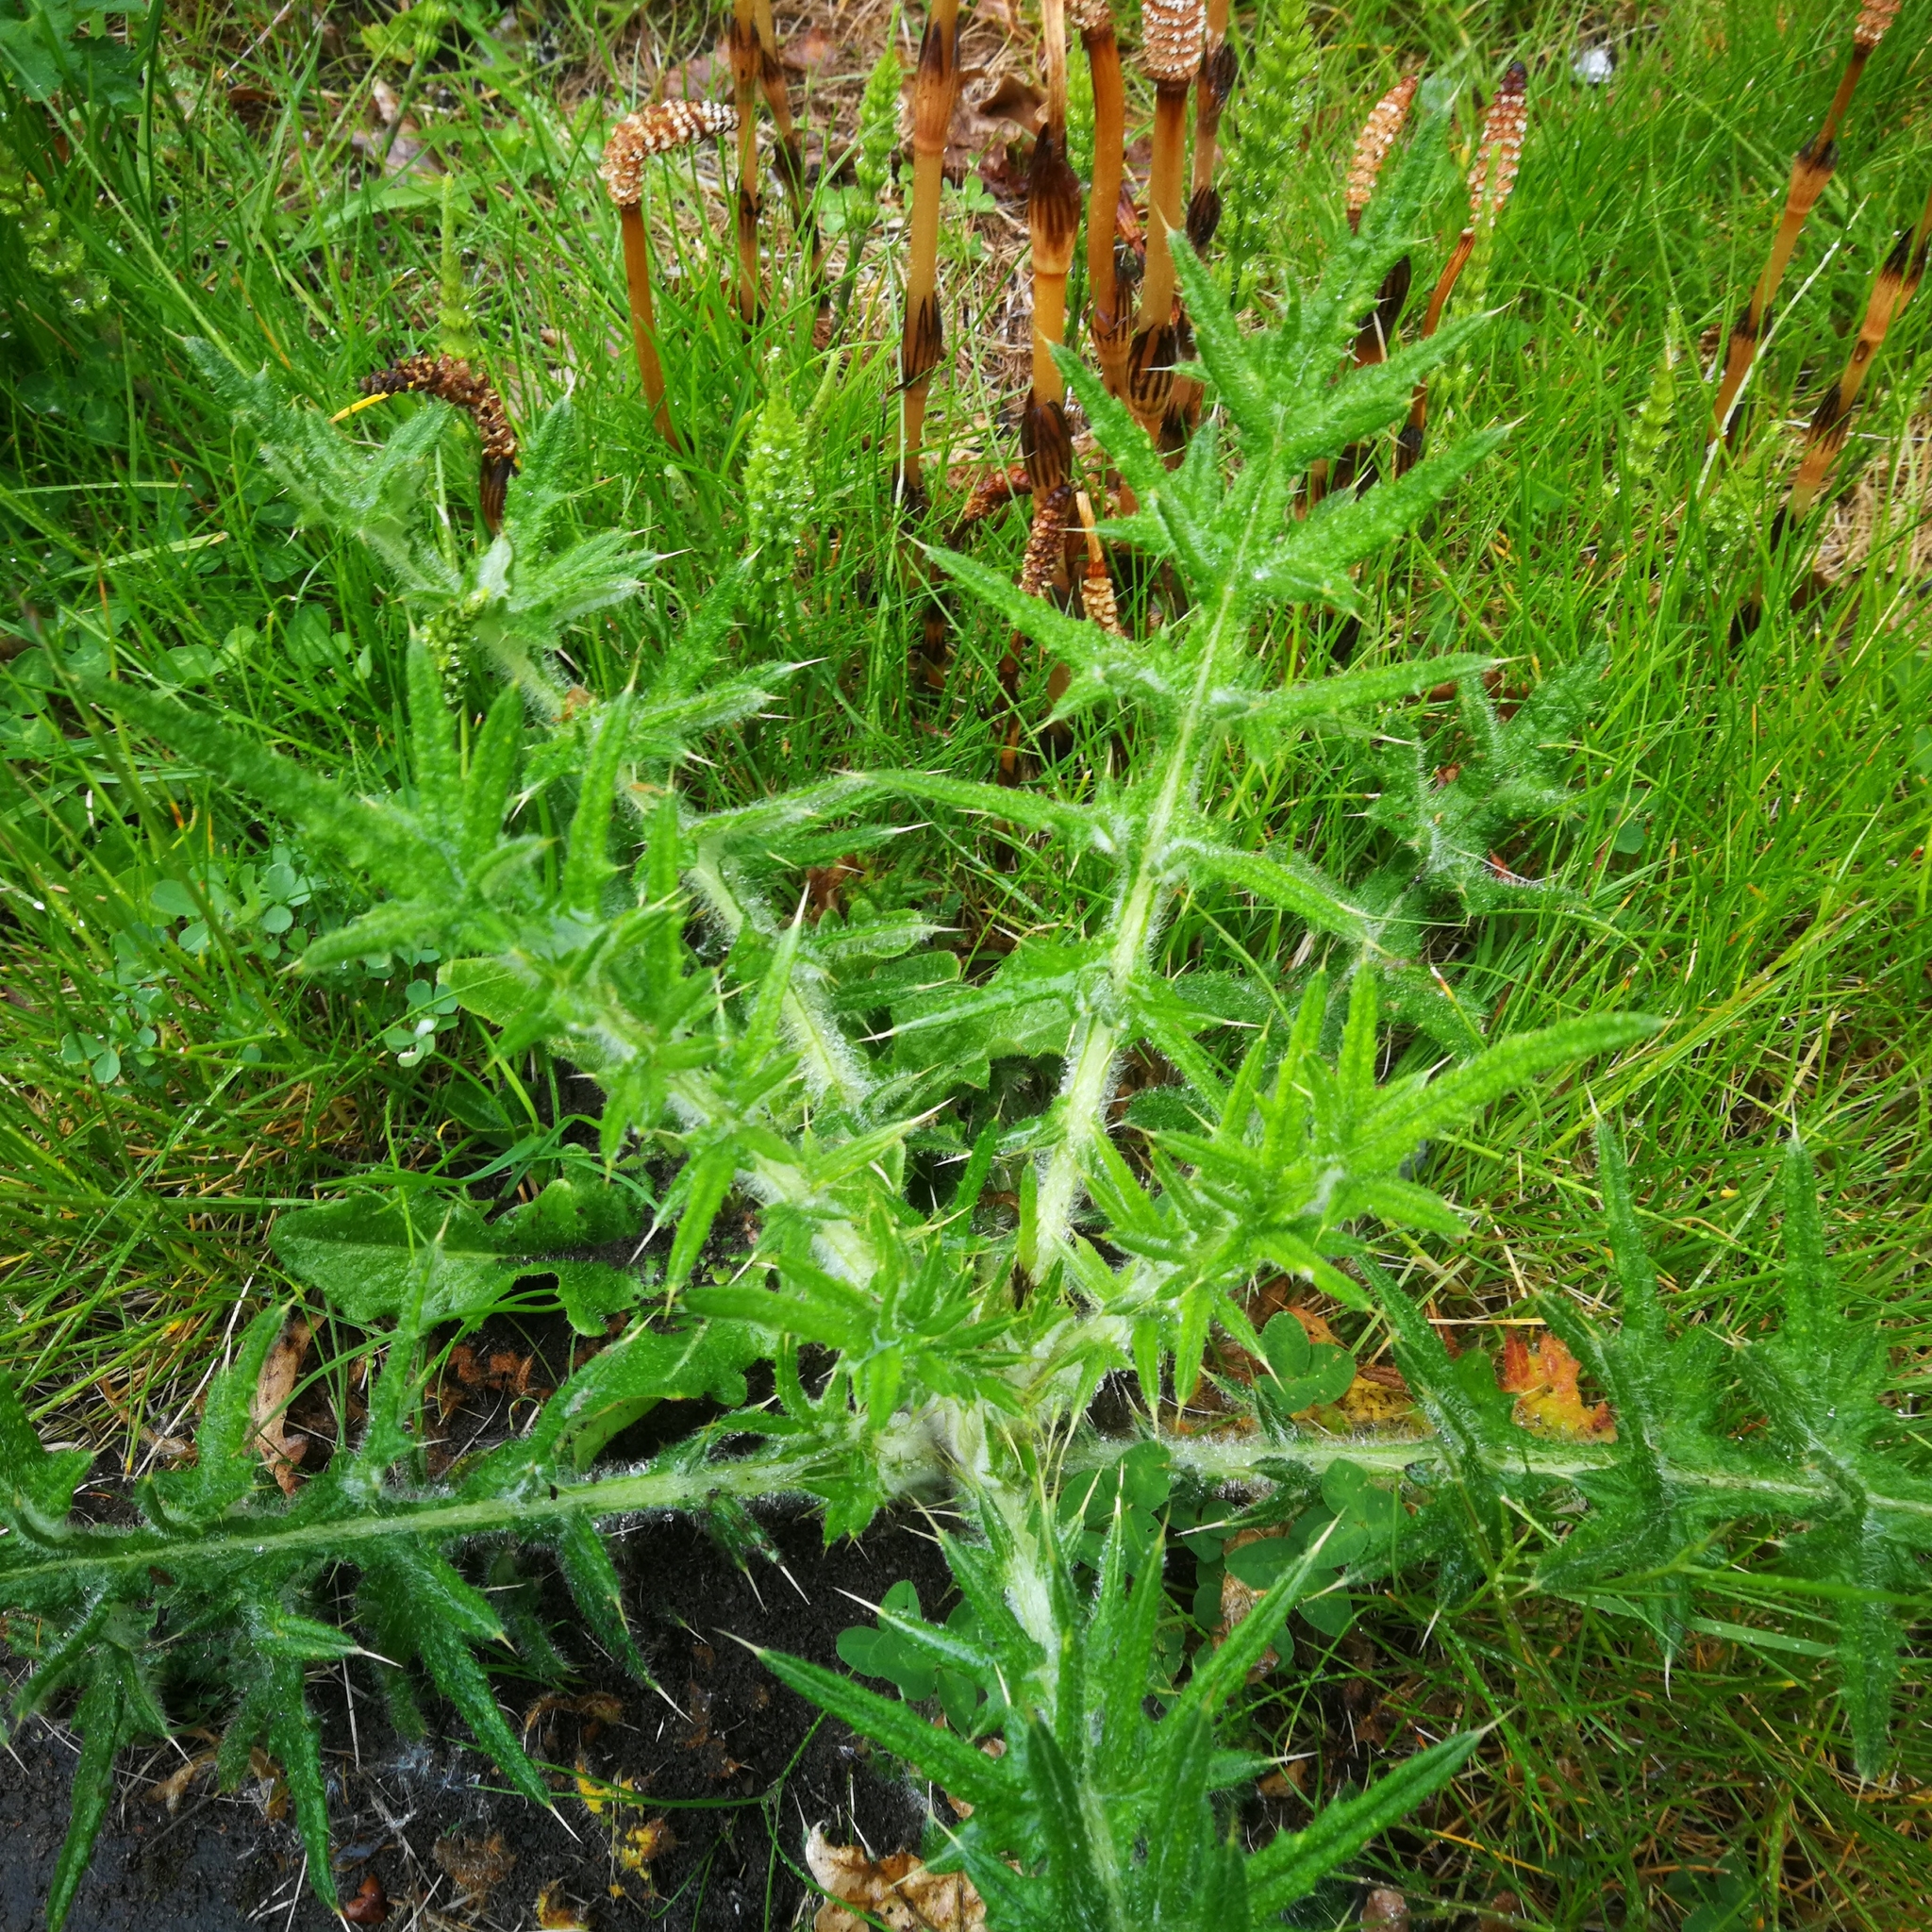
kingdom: Plantae
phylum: Tracheophyta
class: Magnoliopsida
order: Asterales
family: Asteraceae
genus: Cirsium
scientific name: Cirsium vulgare
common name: Bull thistle
